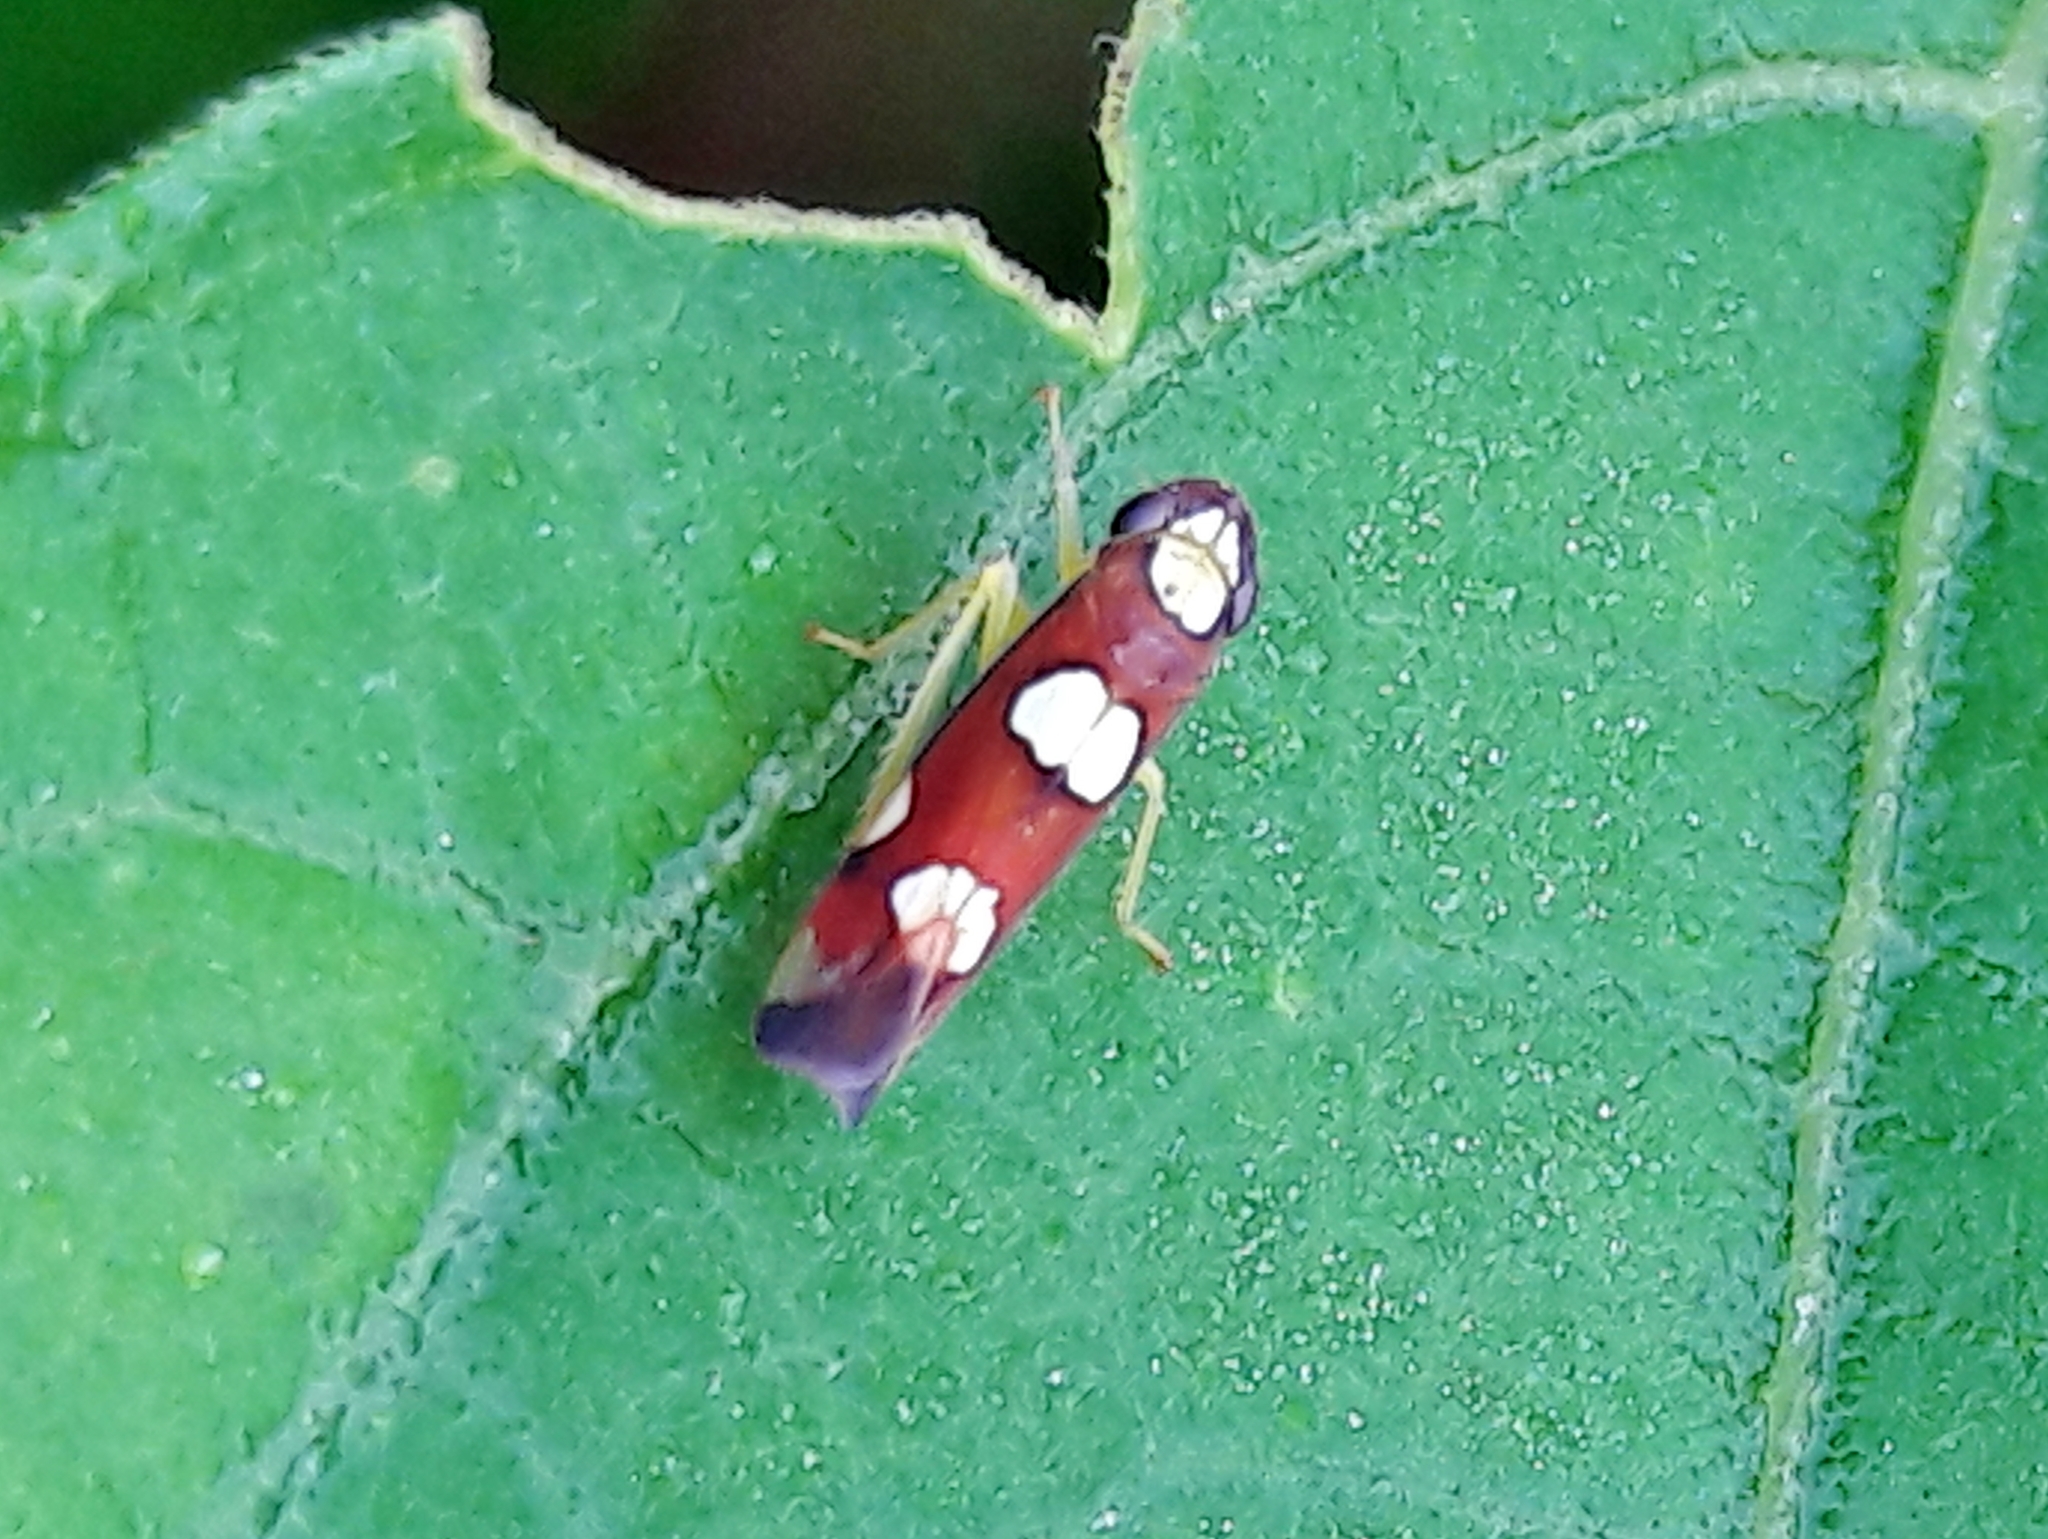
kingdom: Animalia
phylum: Arthropoda
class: Insecta
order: Hemiptera
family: Cicadellidae
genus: Erythrogonia
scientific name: Erythrogonia sexguttata
